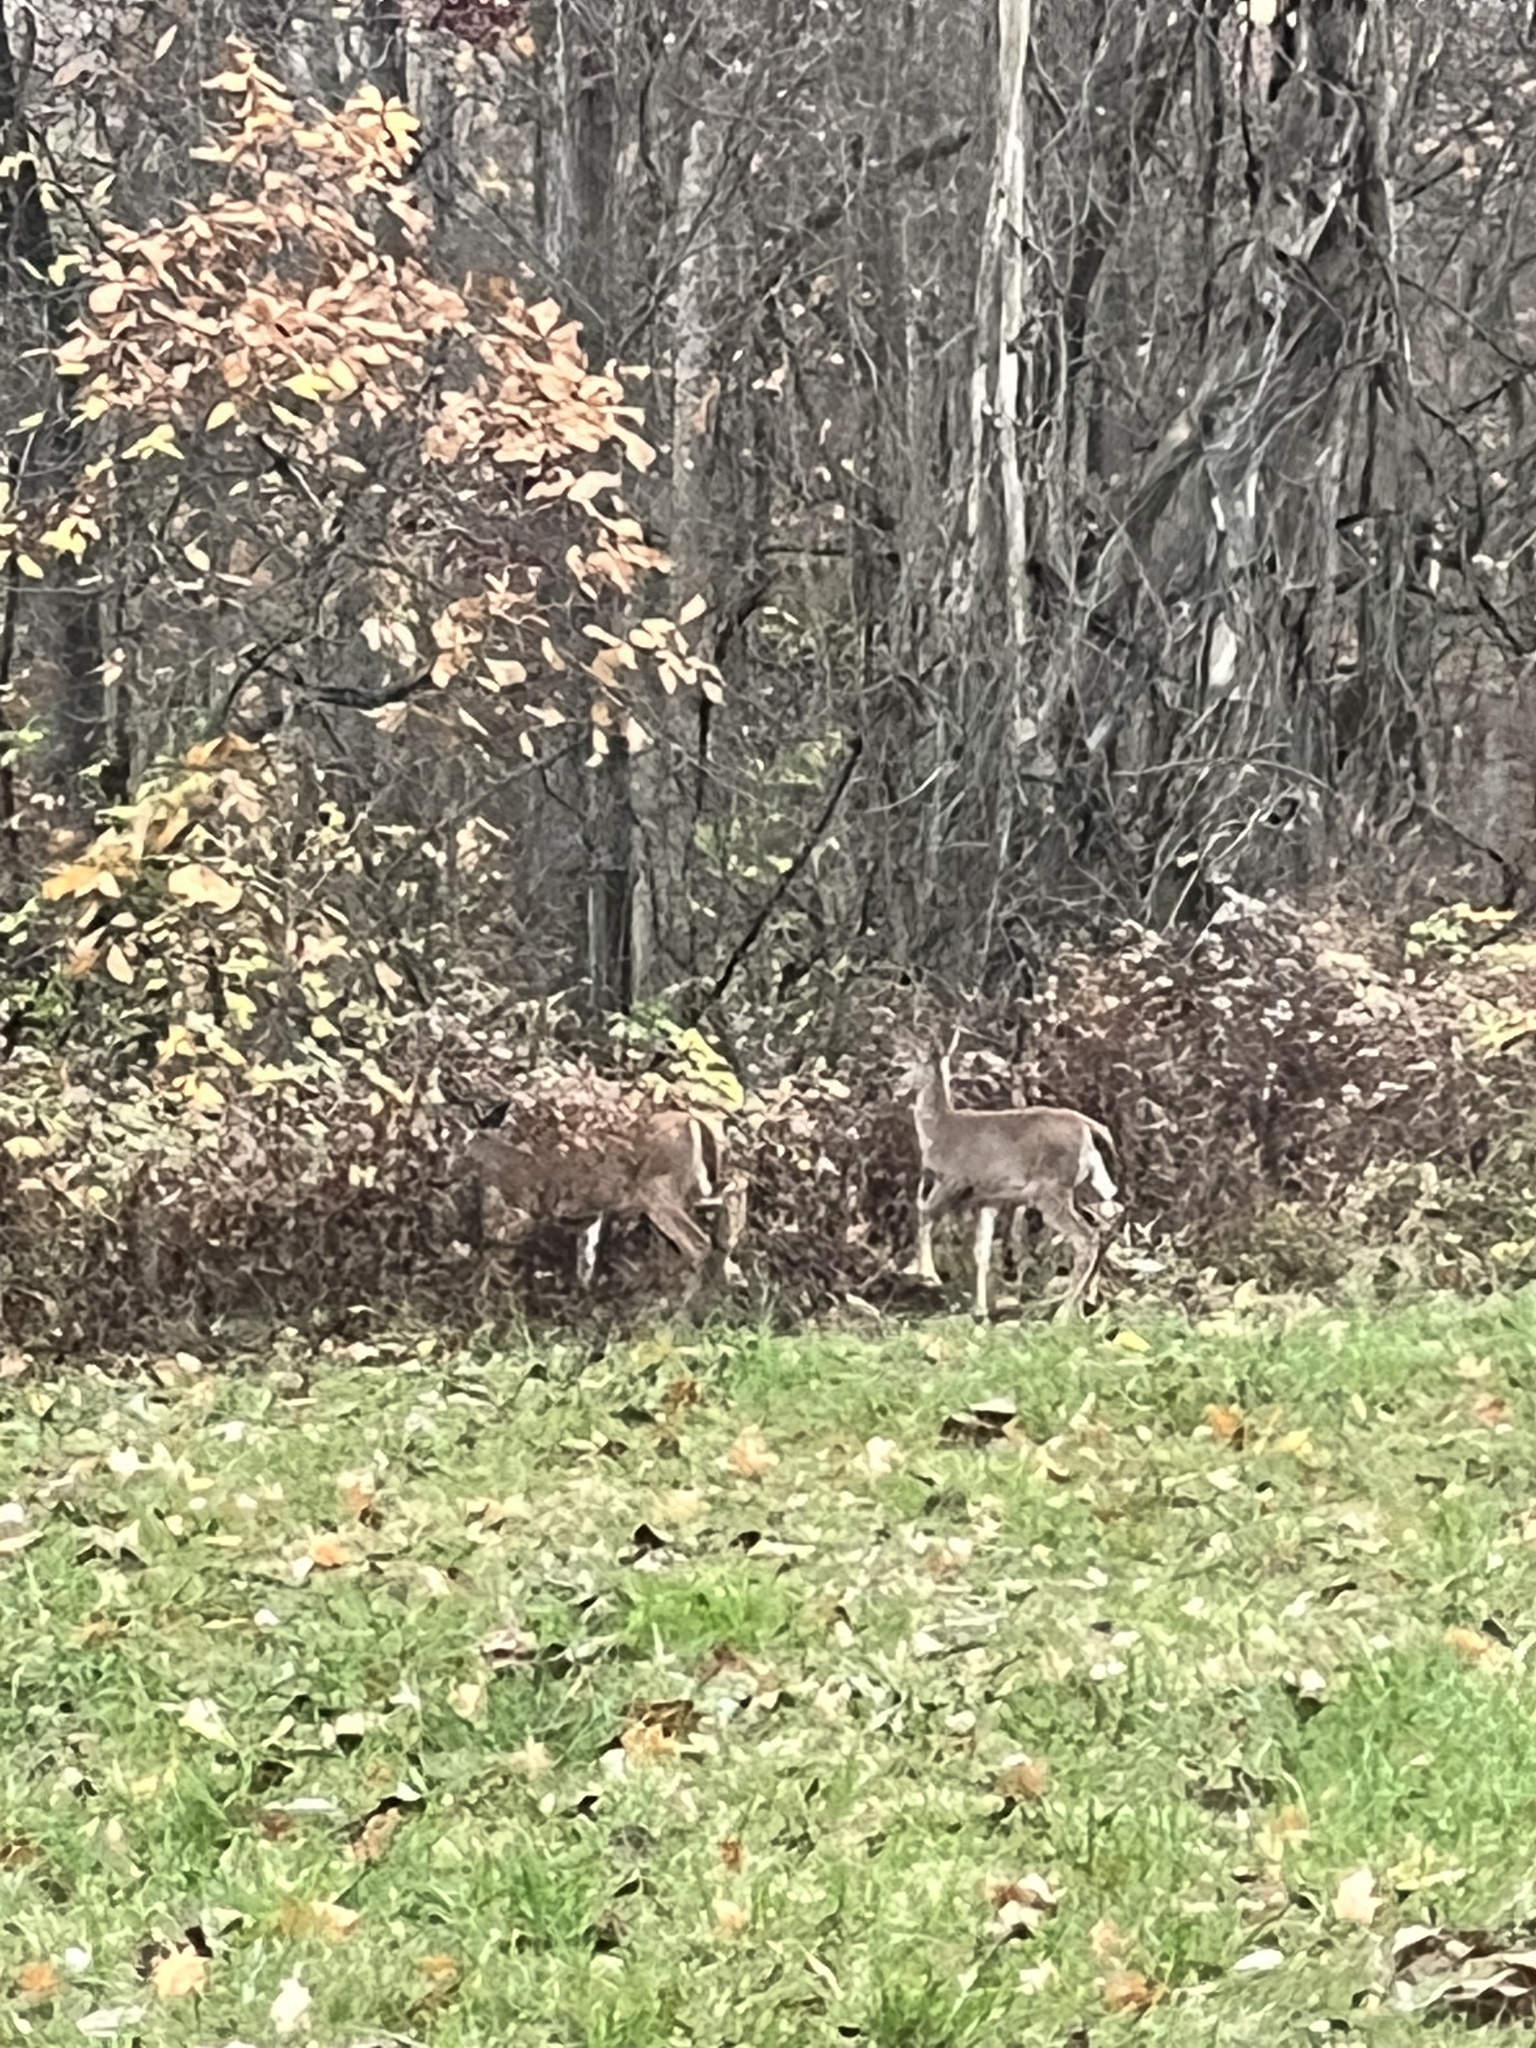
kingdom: Animalia
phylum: Chordata
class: Mammalia
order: Artiodactyla
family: Cervidae
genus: Odocoileus
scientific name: Odocoileus virginianus
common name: White-tailed deer
